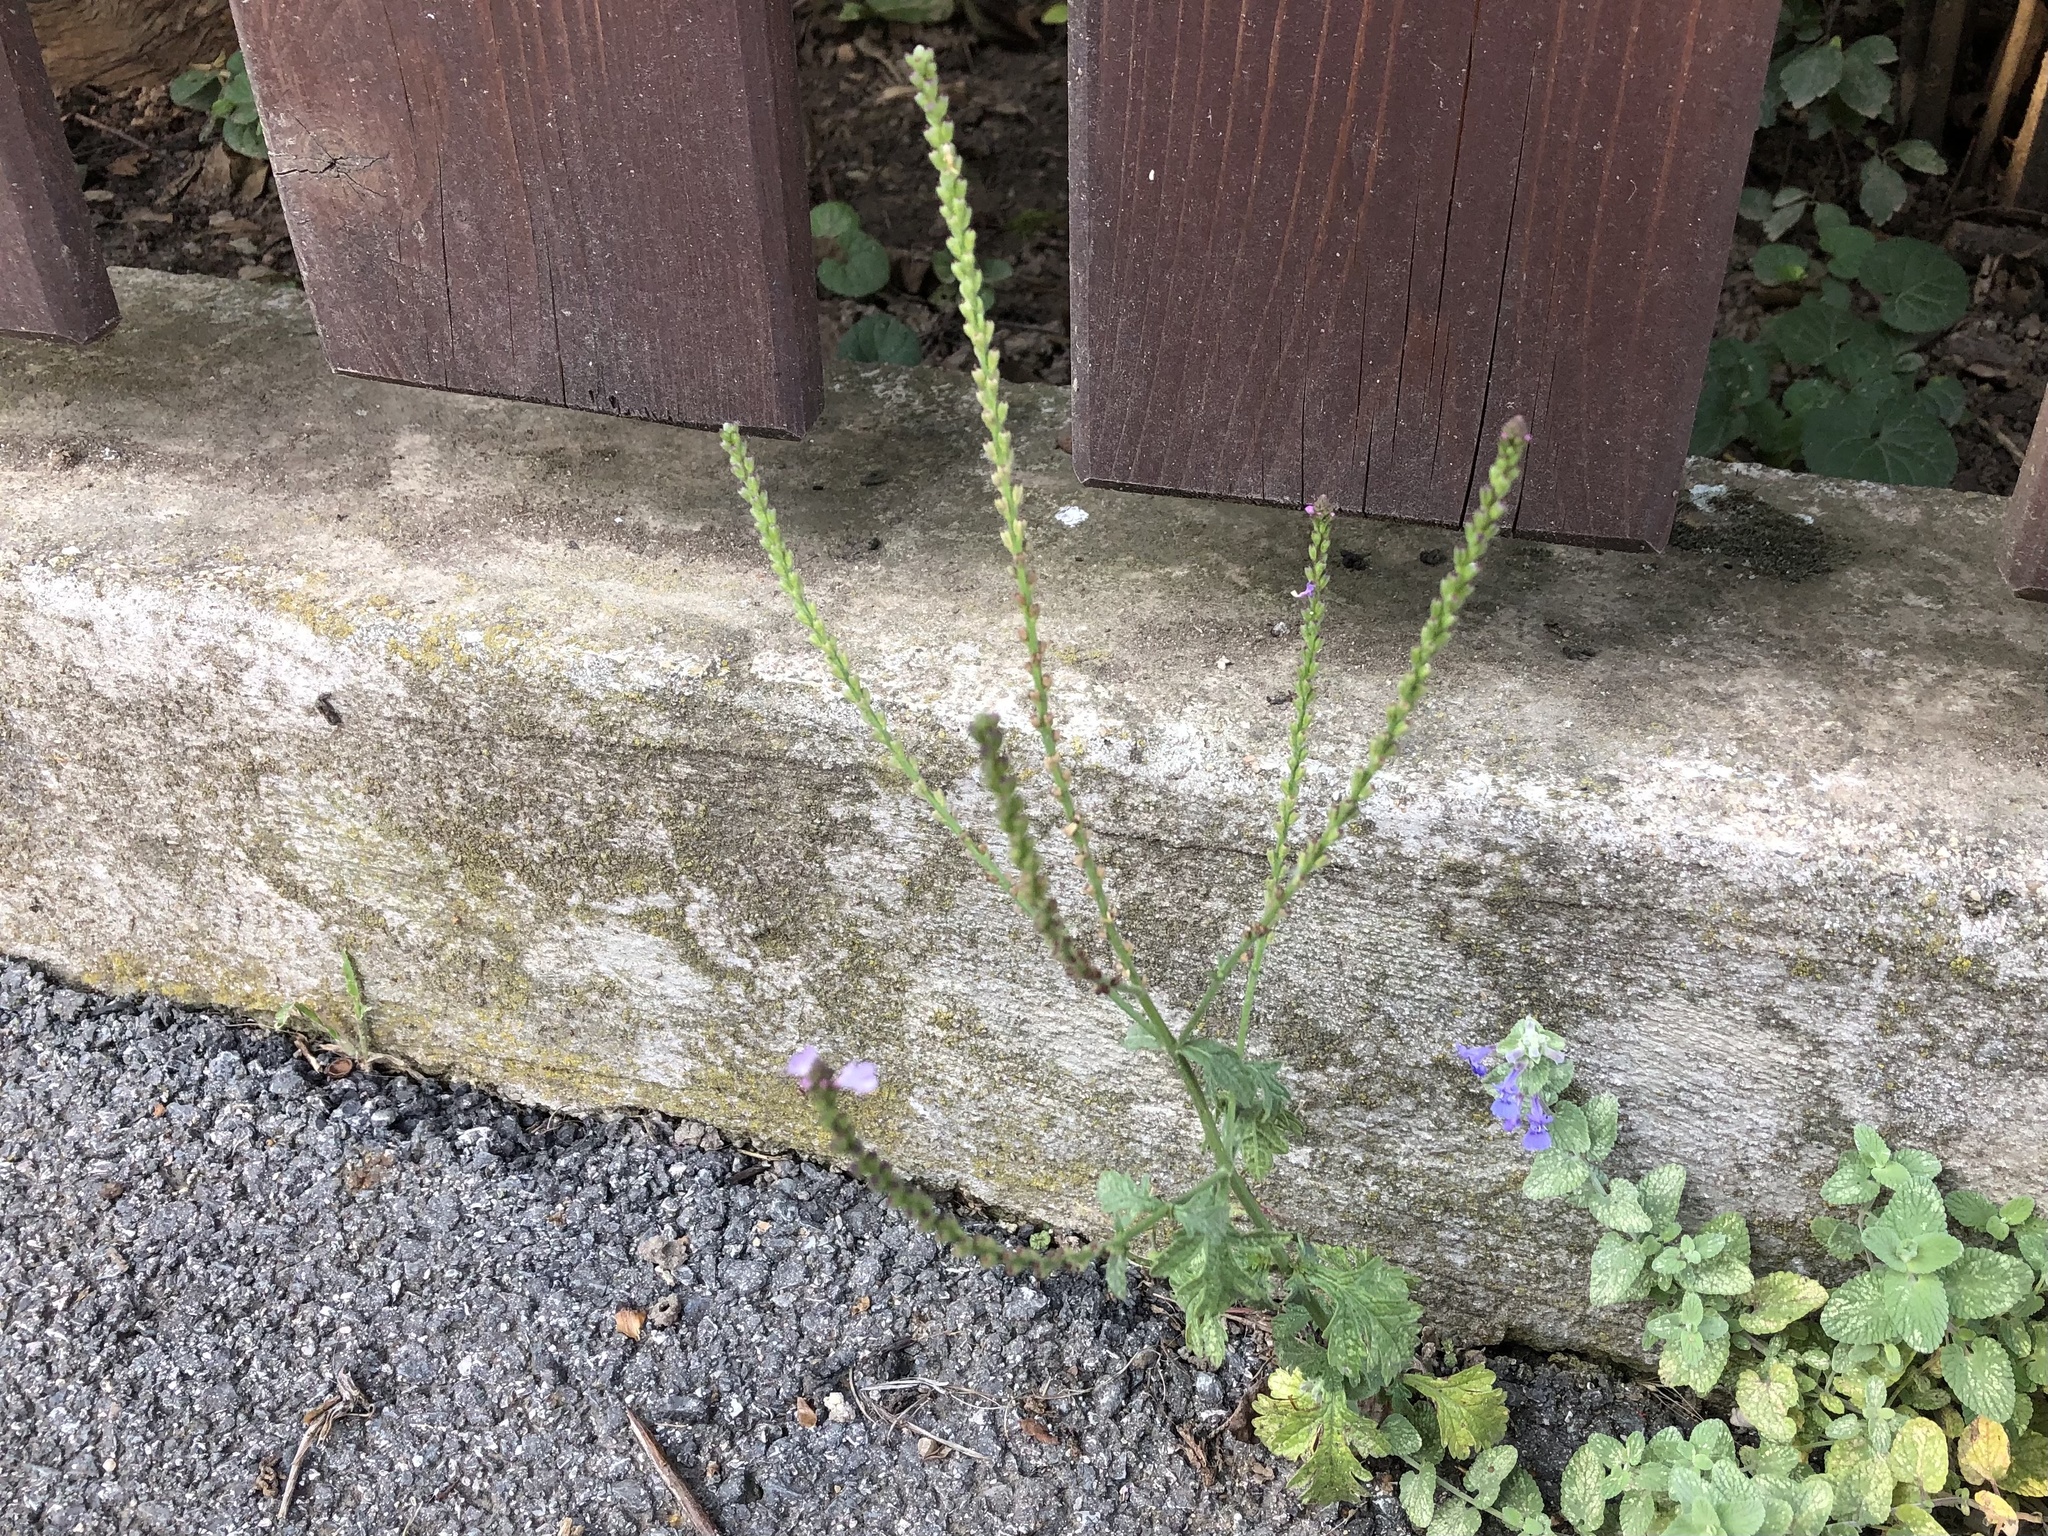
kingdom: Plantae
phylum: Tracheophyta
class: Magnoliopsida
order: Lamiales
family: Verbenaceae
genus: Verbena
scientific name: Verbena officinalis
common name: Vervain
